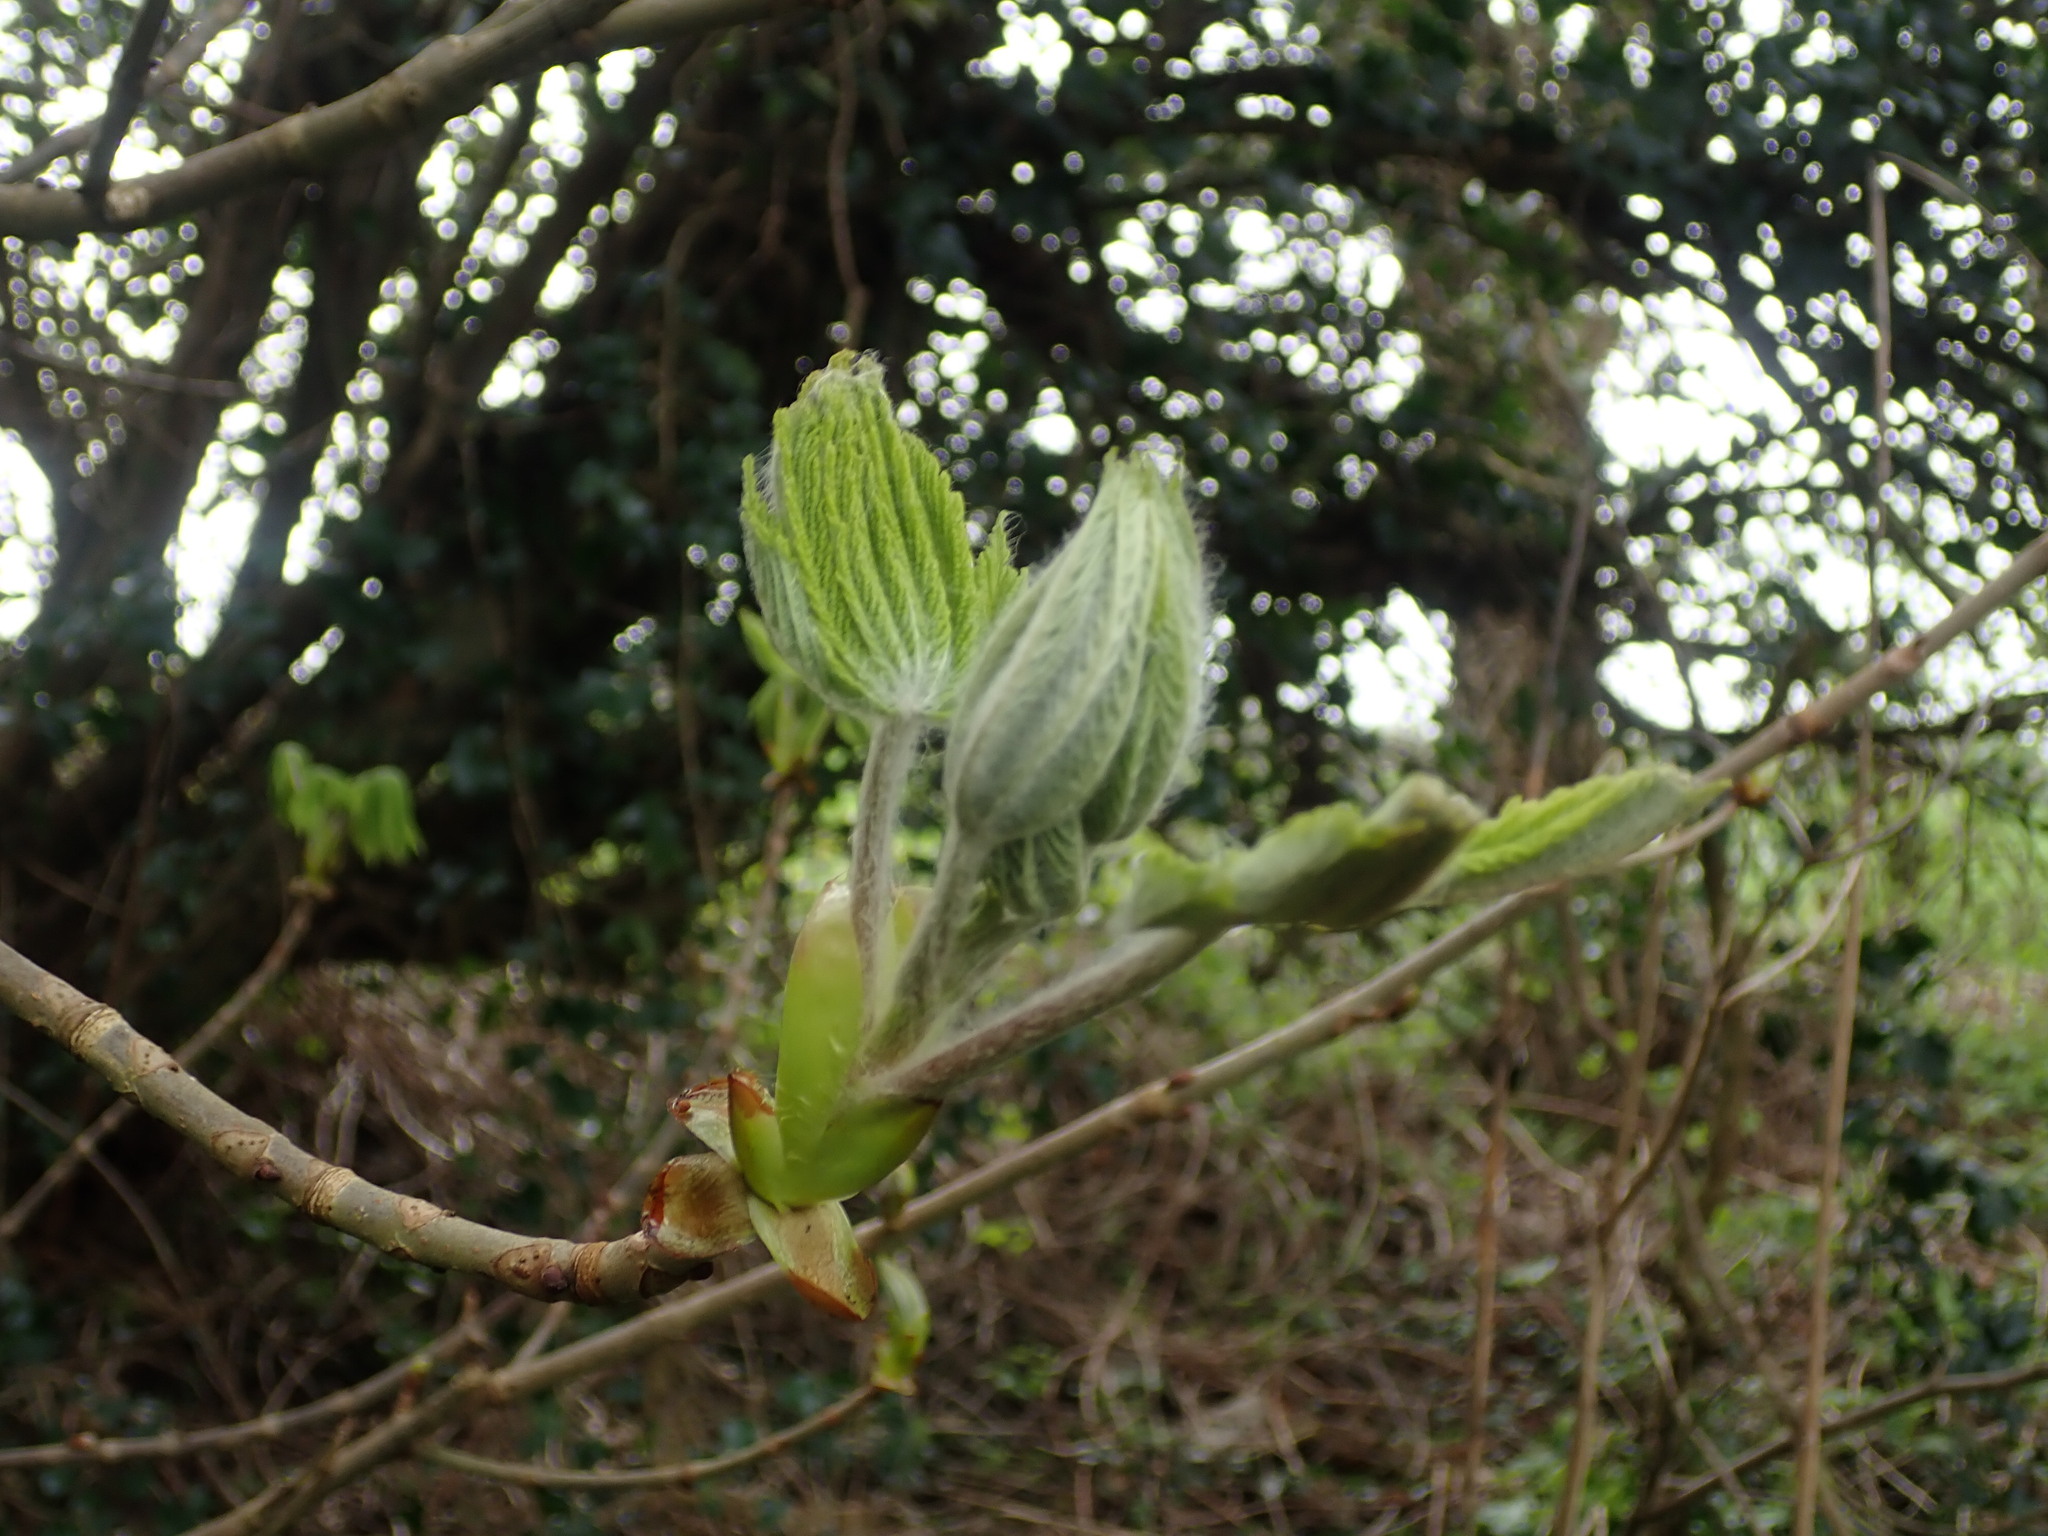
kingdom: Plantae
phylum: Tracheophyta
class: Magnoliopsida
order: Sapindales
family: Sapindaceae
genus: Aesculus
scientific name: Aesculus hippocastanum
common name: Horse-chestnut
